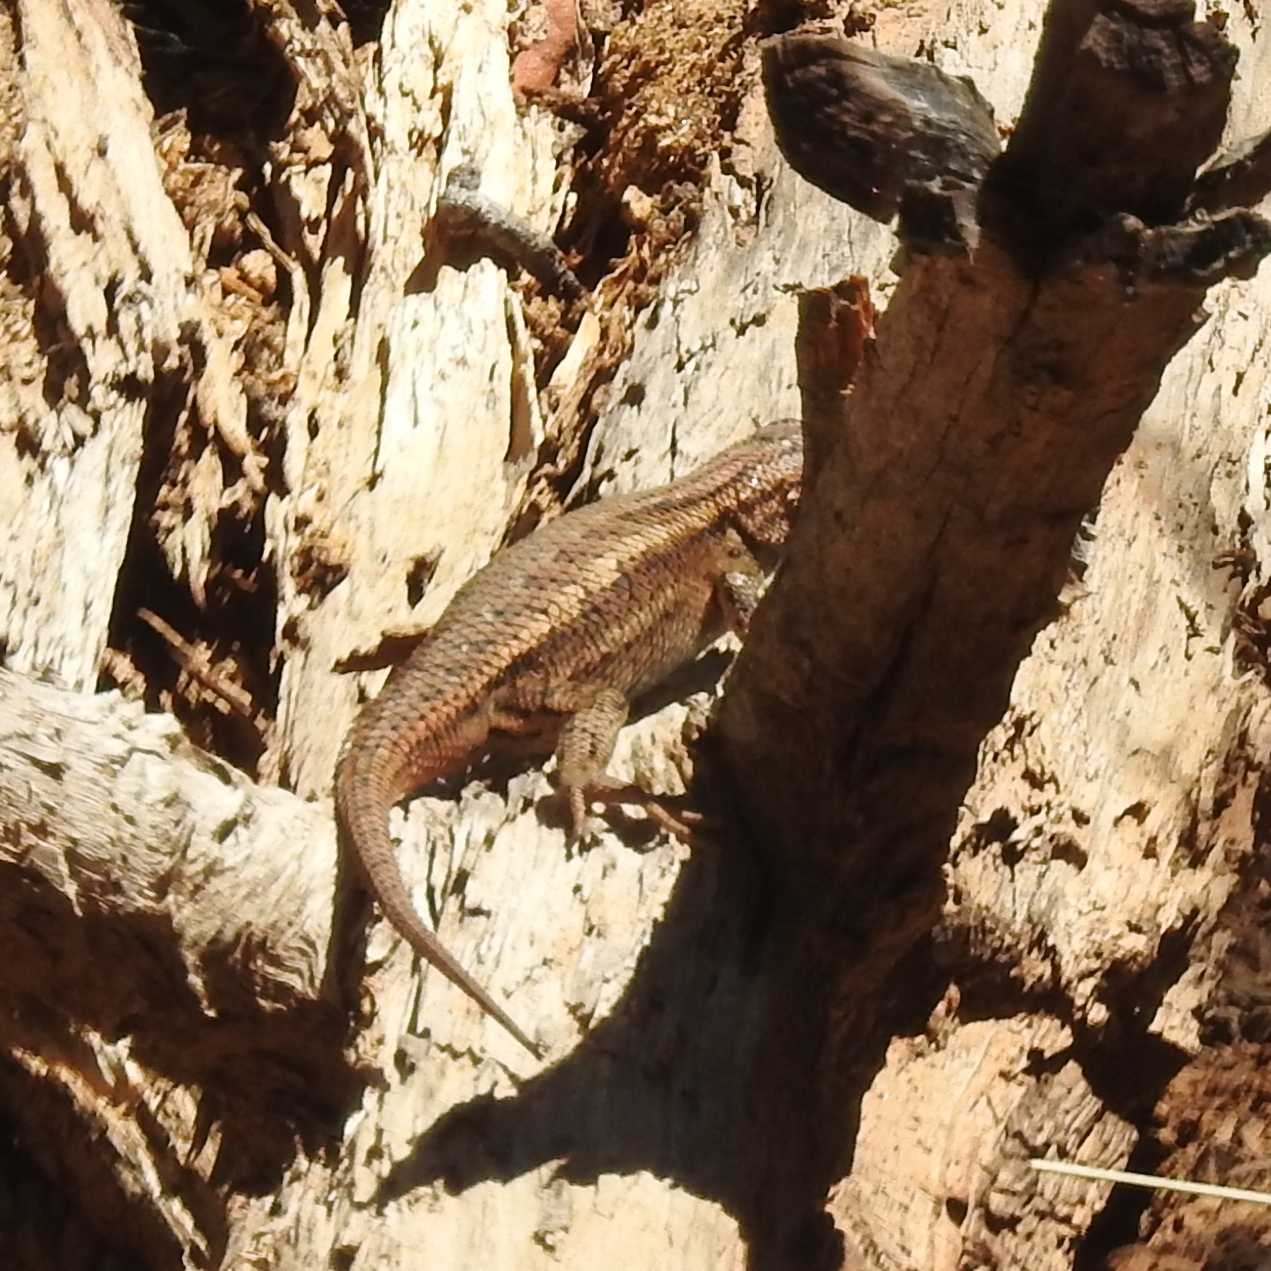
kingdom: Animalia
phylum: Chordata
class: Squamata
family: Phrynosomatidae
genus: Sceloporus
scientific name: Sceloporus tristichus
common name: Plateau fence lizard
